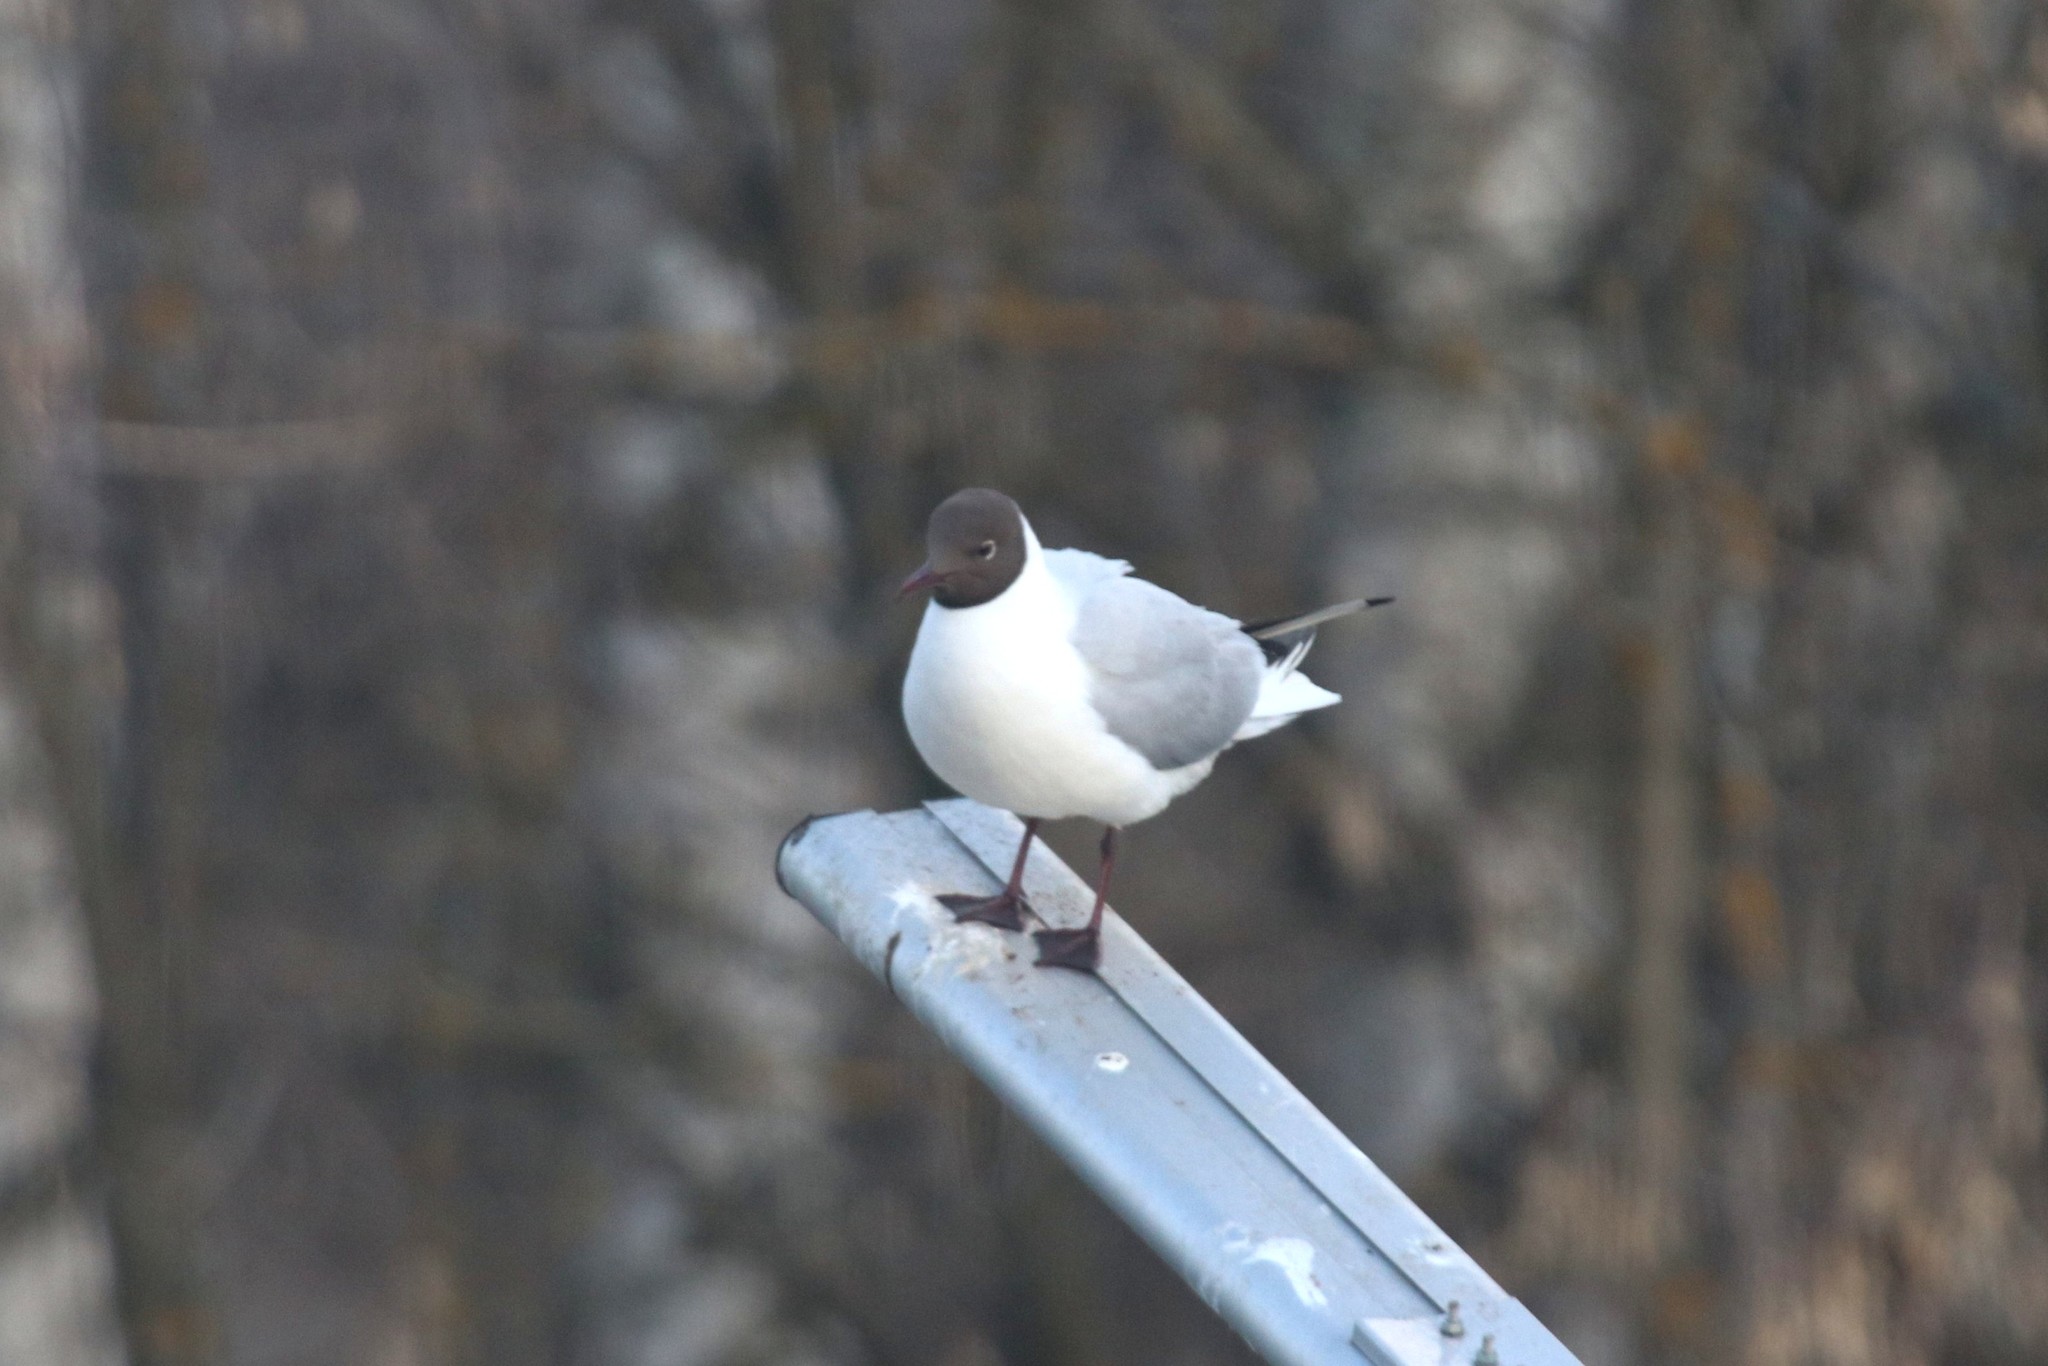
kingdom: Animalia
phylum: Chordata
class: Aves
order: Charadriiformes
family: Laridae
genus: Chroicocephalus
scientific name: Chroicocephalus ridibundus
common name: Black-headed gull
